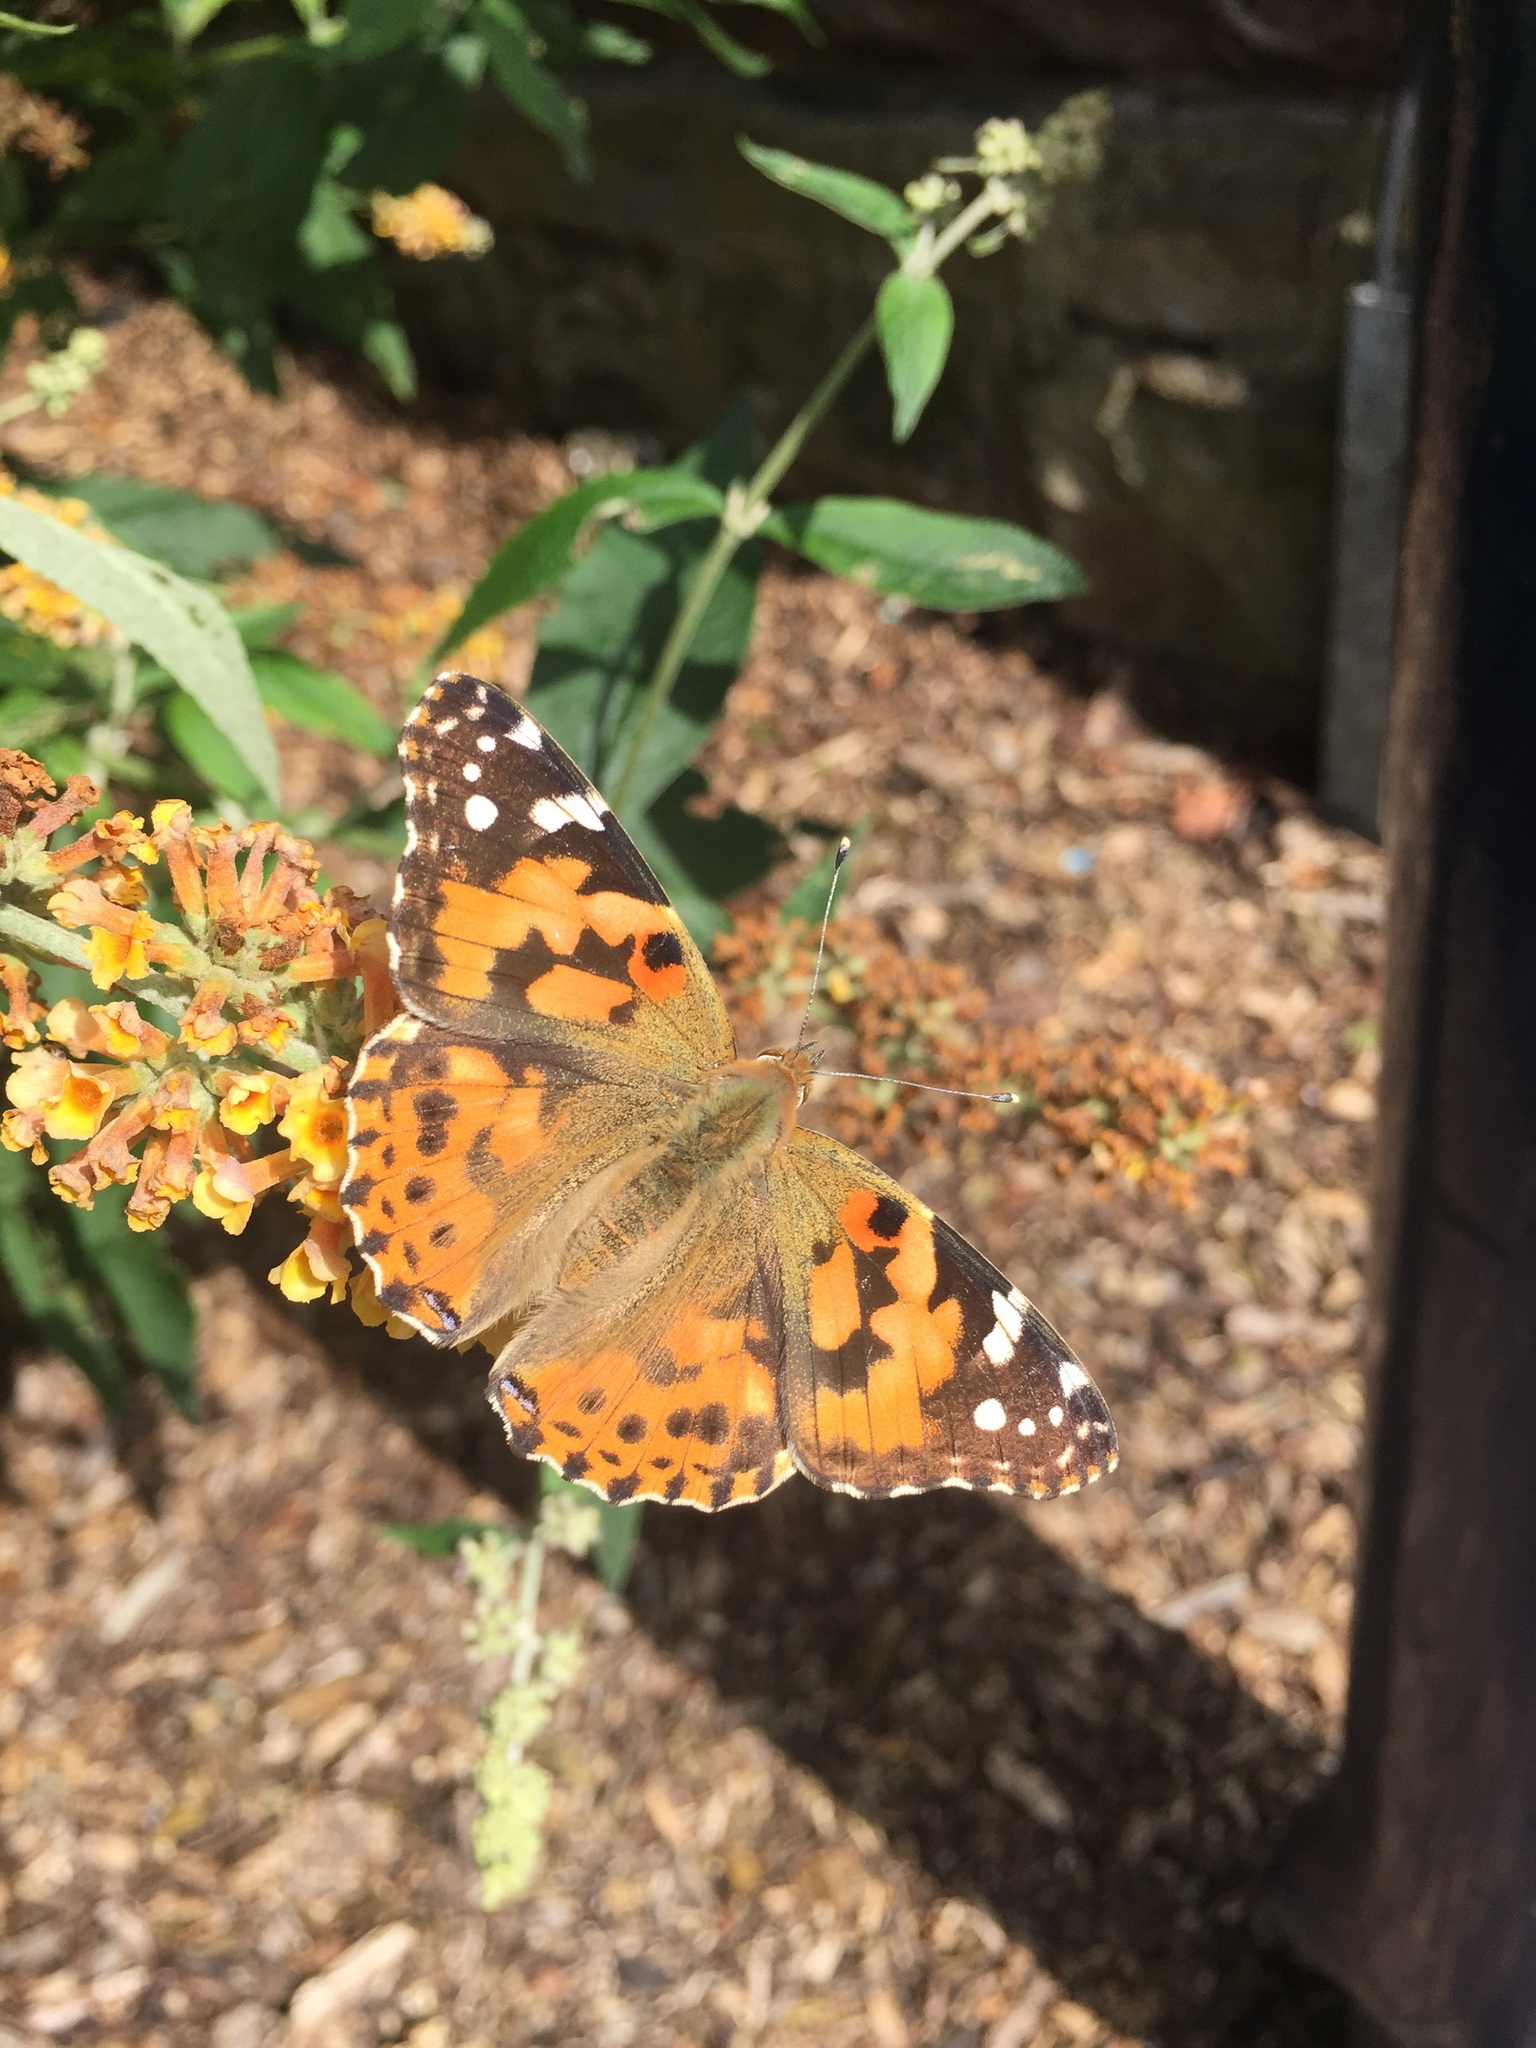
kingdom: Animalia
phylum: Arthropoda
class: Insecta
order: Lepidoptera
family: Nymphalidae
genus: Vanessa
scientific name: Vanessa cardui
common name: Painted lady
